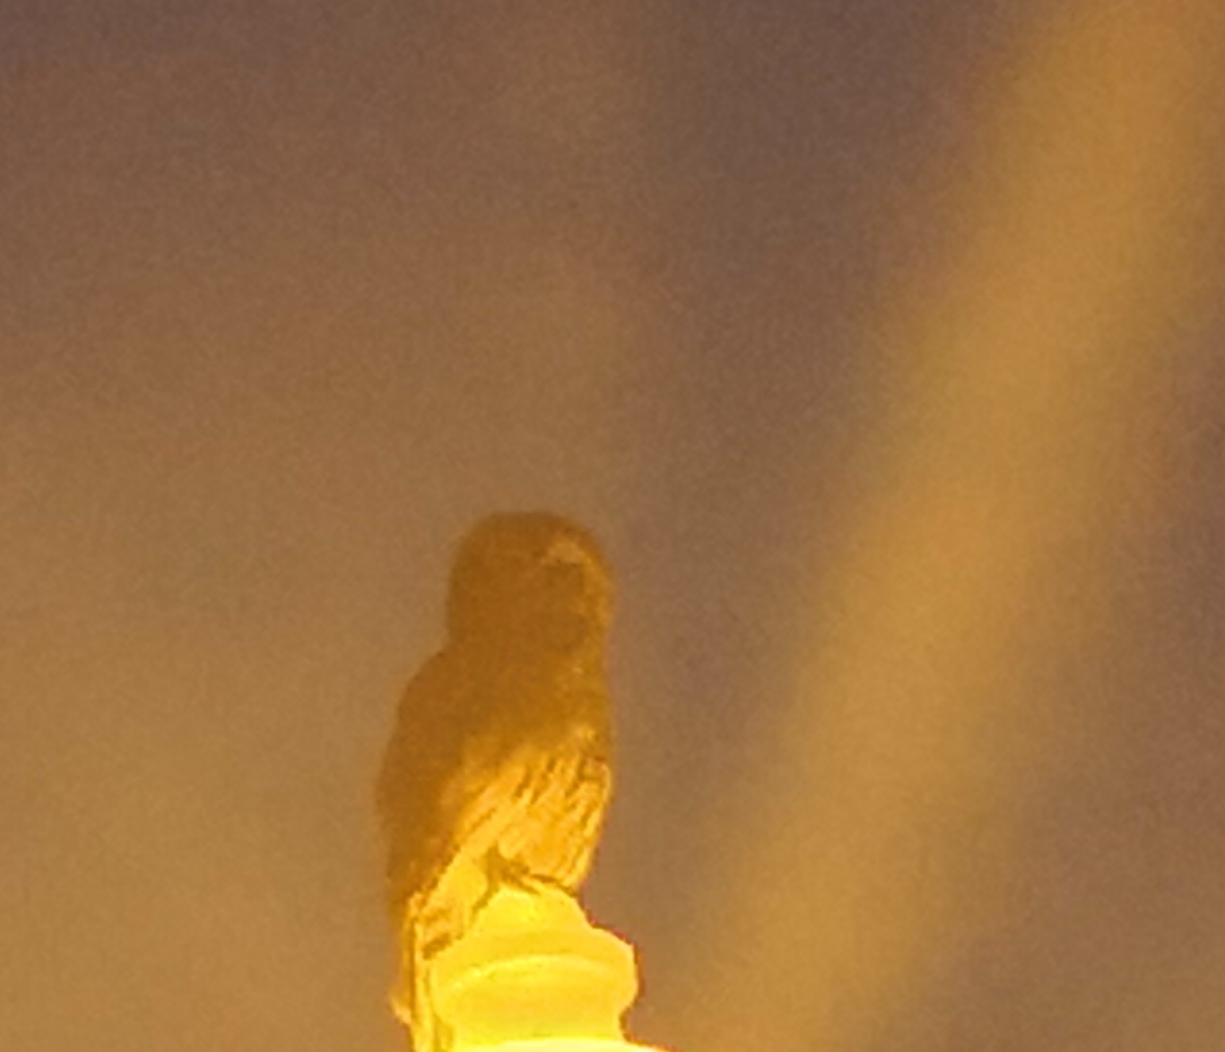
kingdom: Animalia
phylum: Chordata
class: Aves
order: Strigiformes
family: Strigidae
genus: Strix
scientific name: Strix varia
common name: Barred owl
